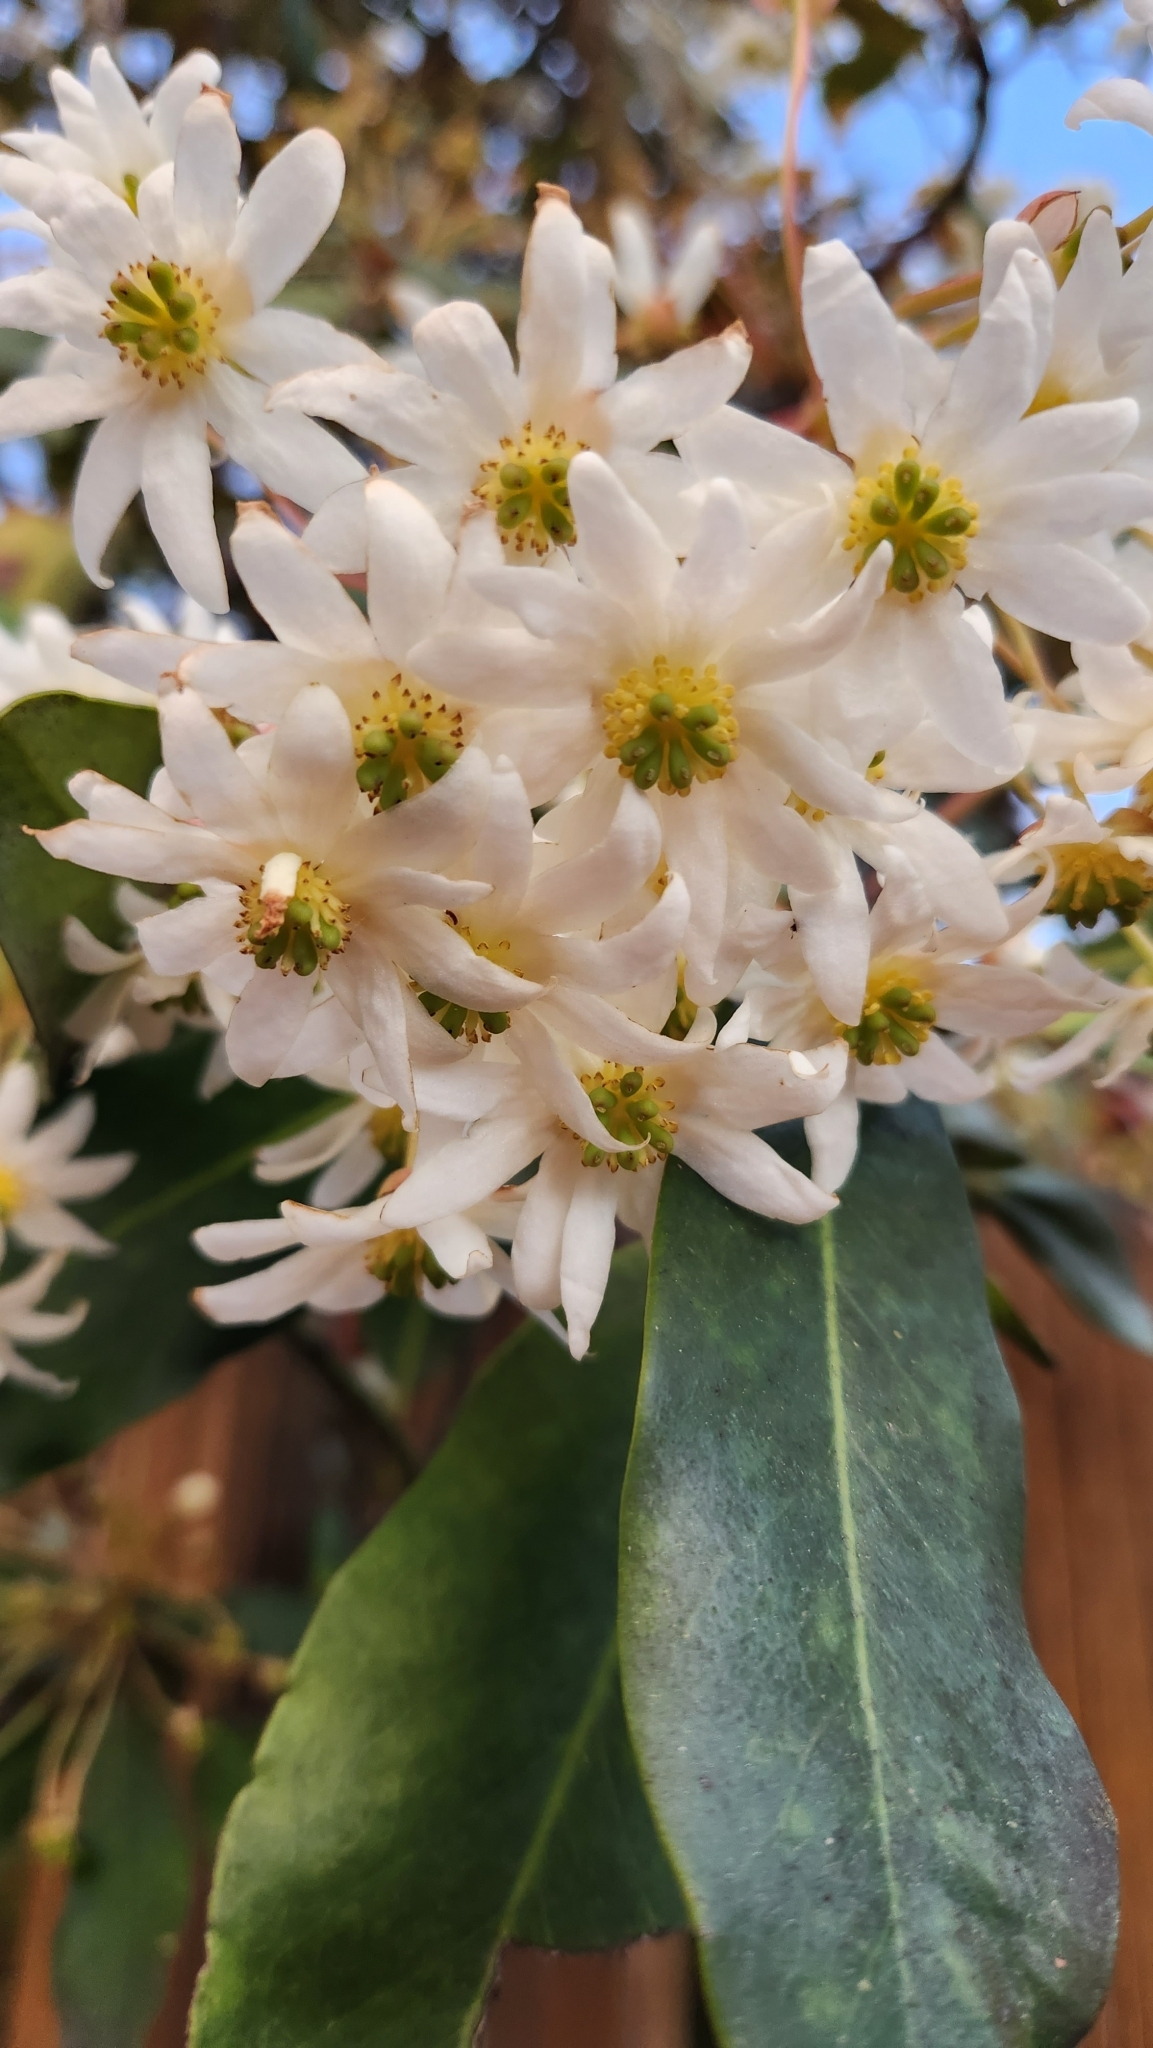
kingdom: Plantae
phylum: Tracheophyta
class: Magnoliopsida
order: Canellales
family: Winteraceae
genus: Drimys
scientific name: Drimys winteri
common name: Winter's-bark
